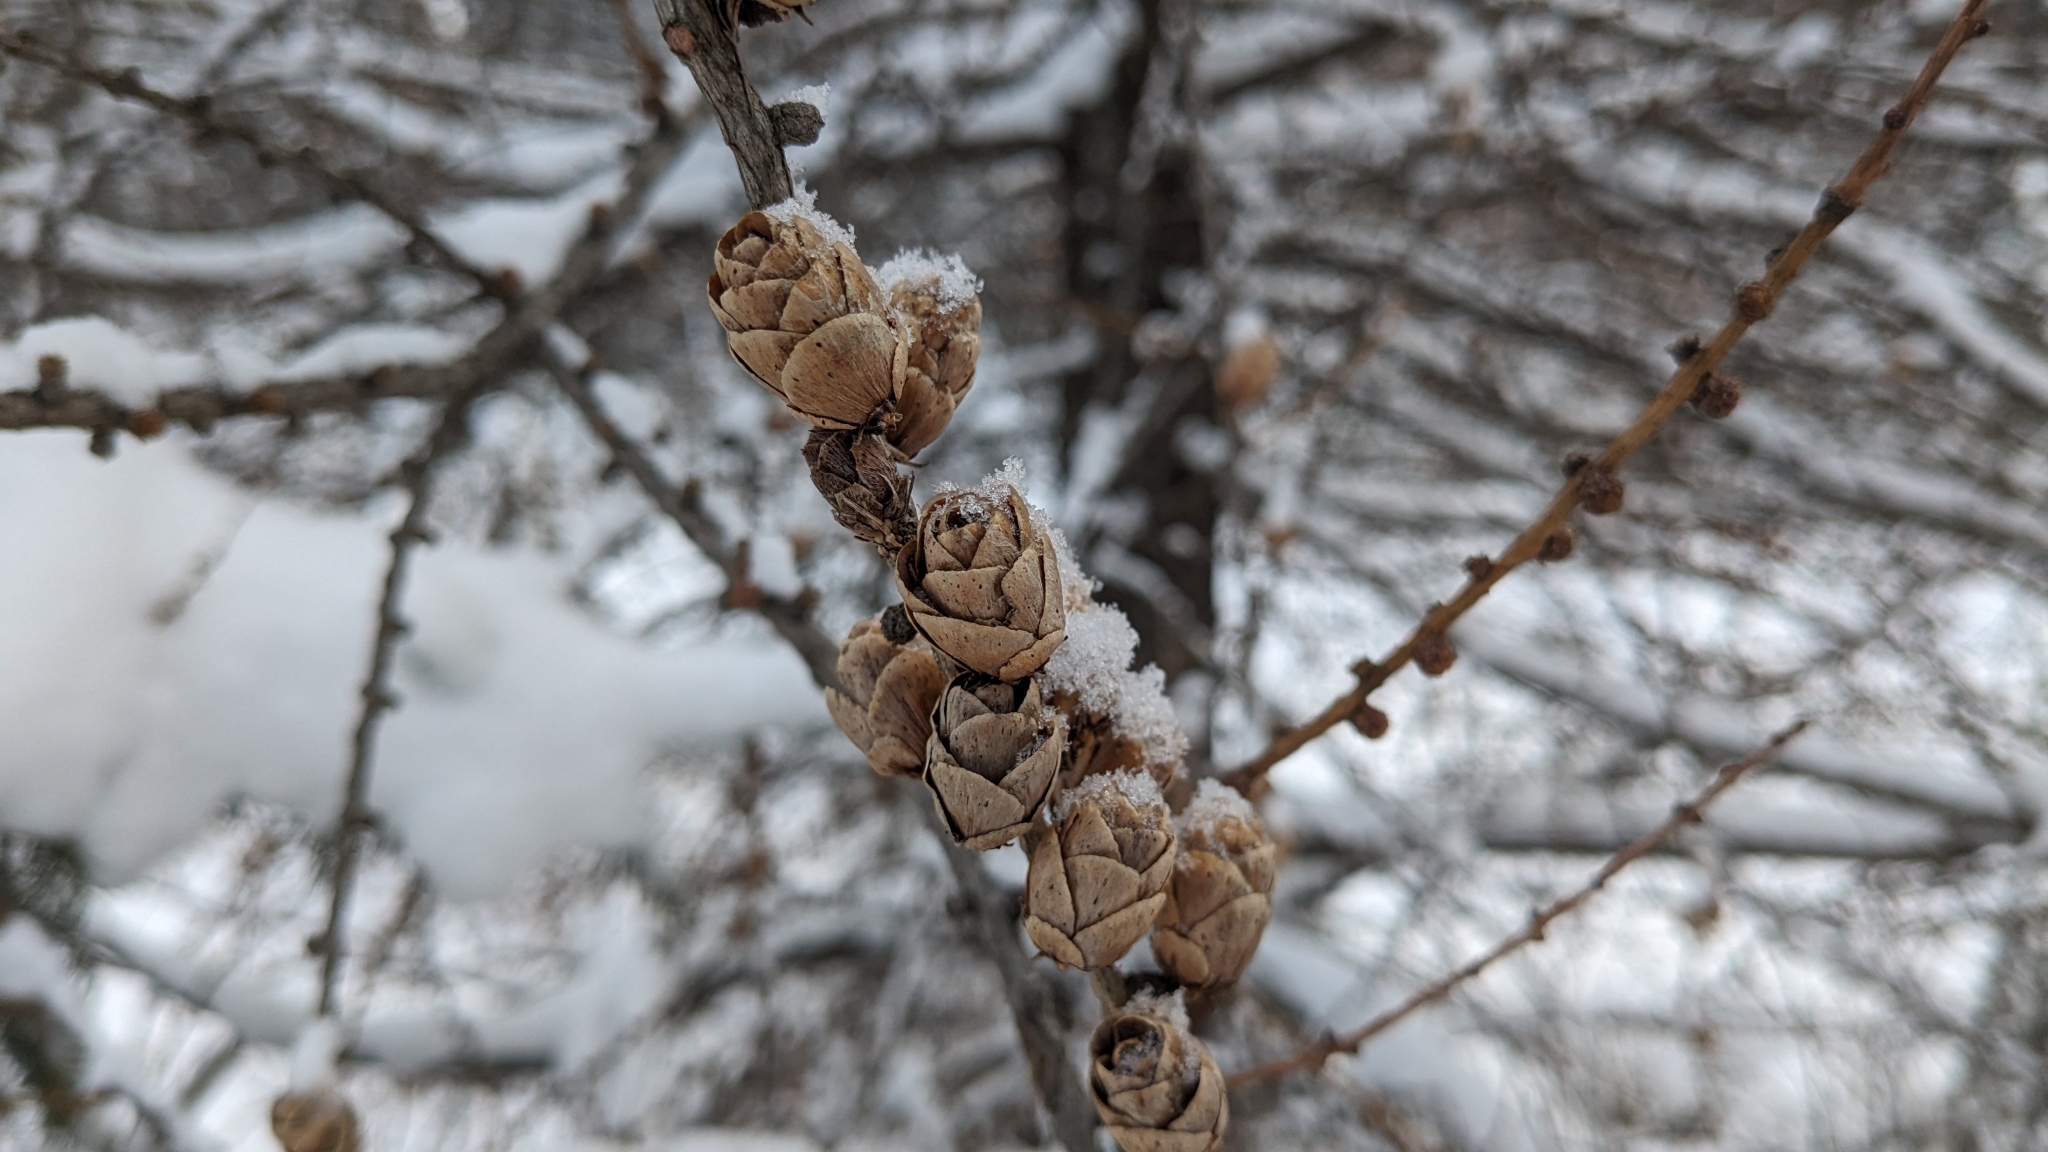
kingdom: Plantae
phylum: Tracheophyta
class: Pinopsida
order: Pinales
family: Pinaceae
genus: Larix
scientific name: Larix laricina
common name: American larch
